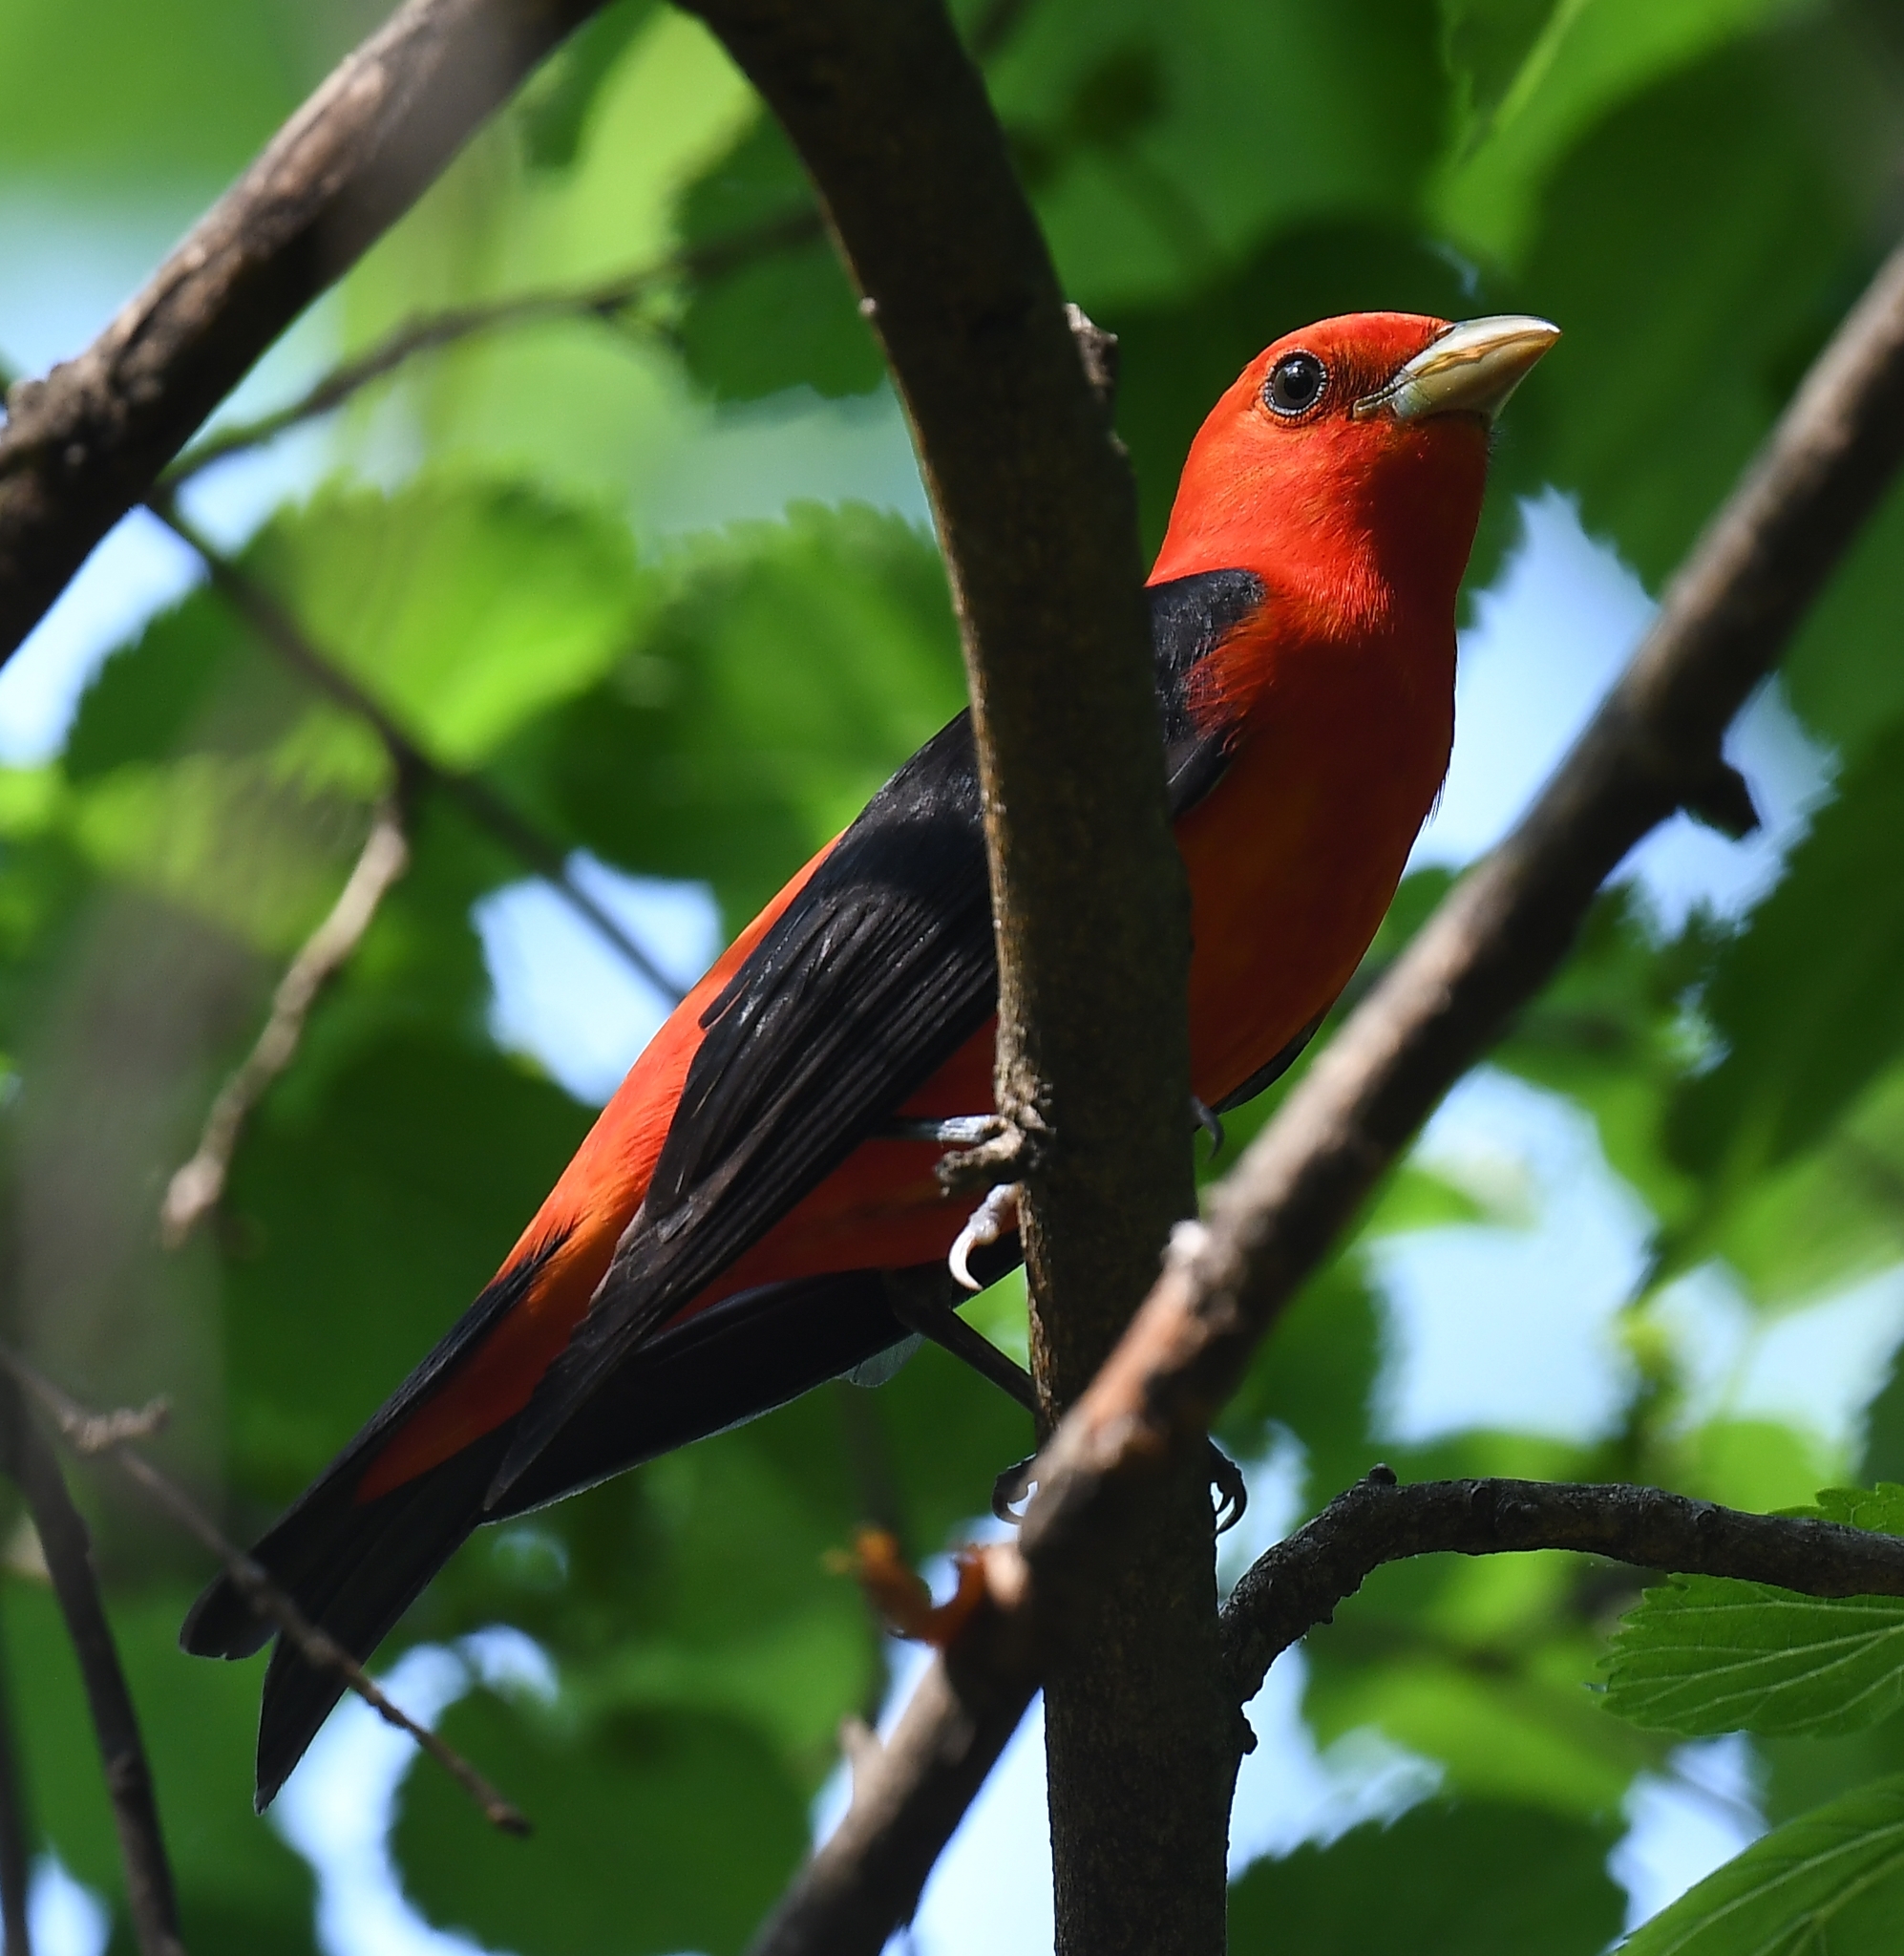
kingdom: Animalia
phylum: Chordata
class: Aves
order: Passeriformes
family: Cardinalidae
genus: Piranga
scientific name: Piranga olivacea
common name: Scarlet tanager
